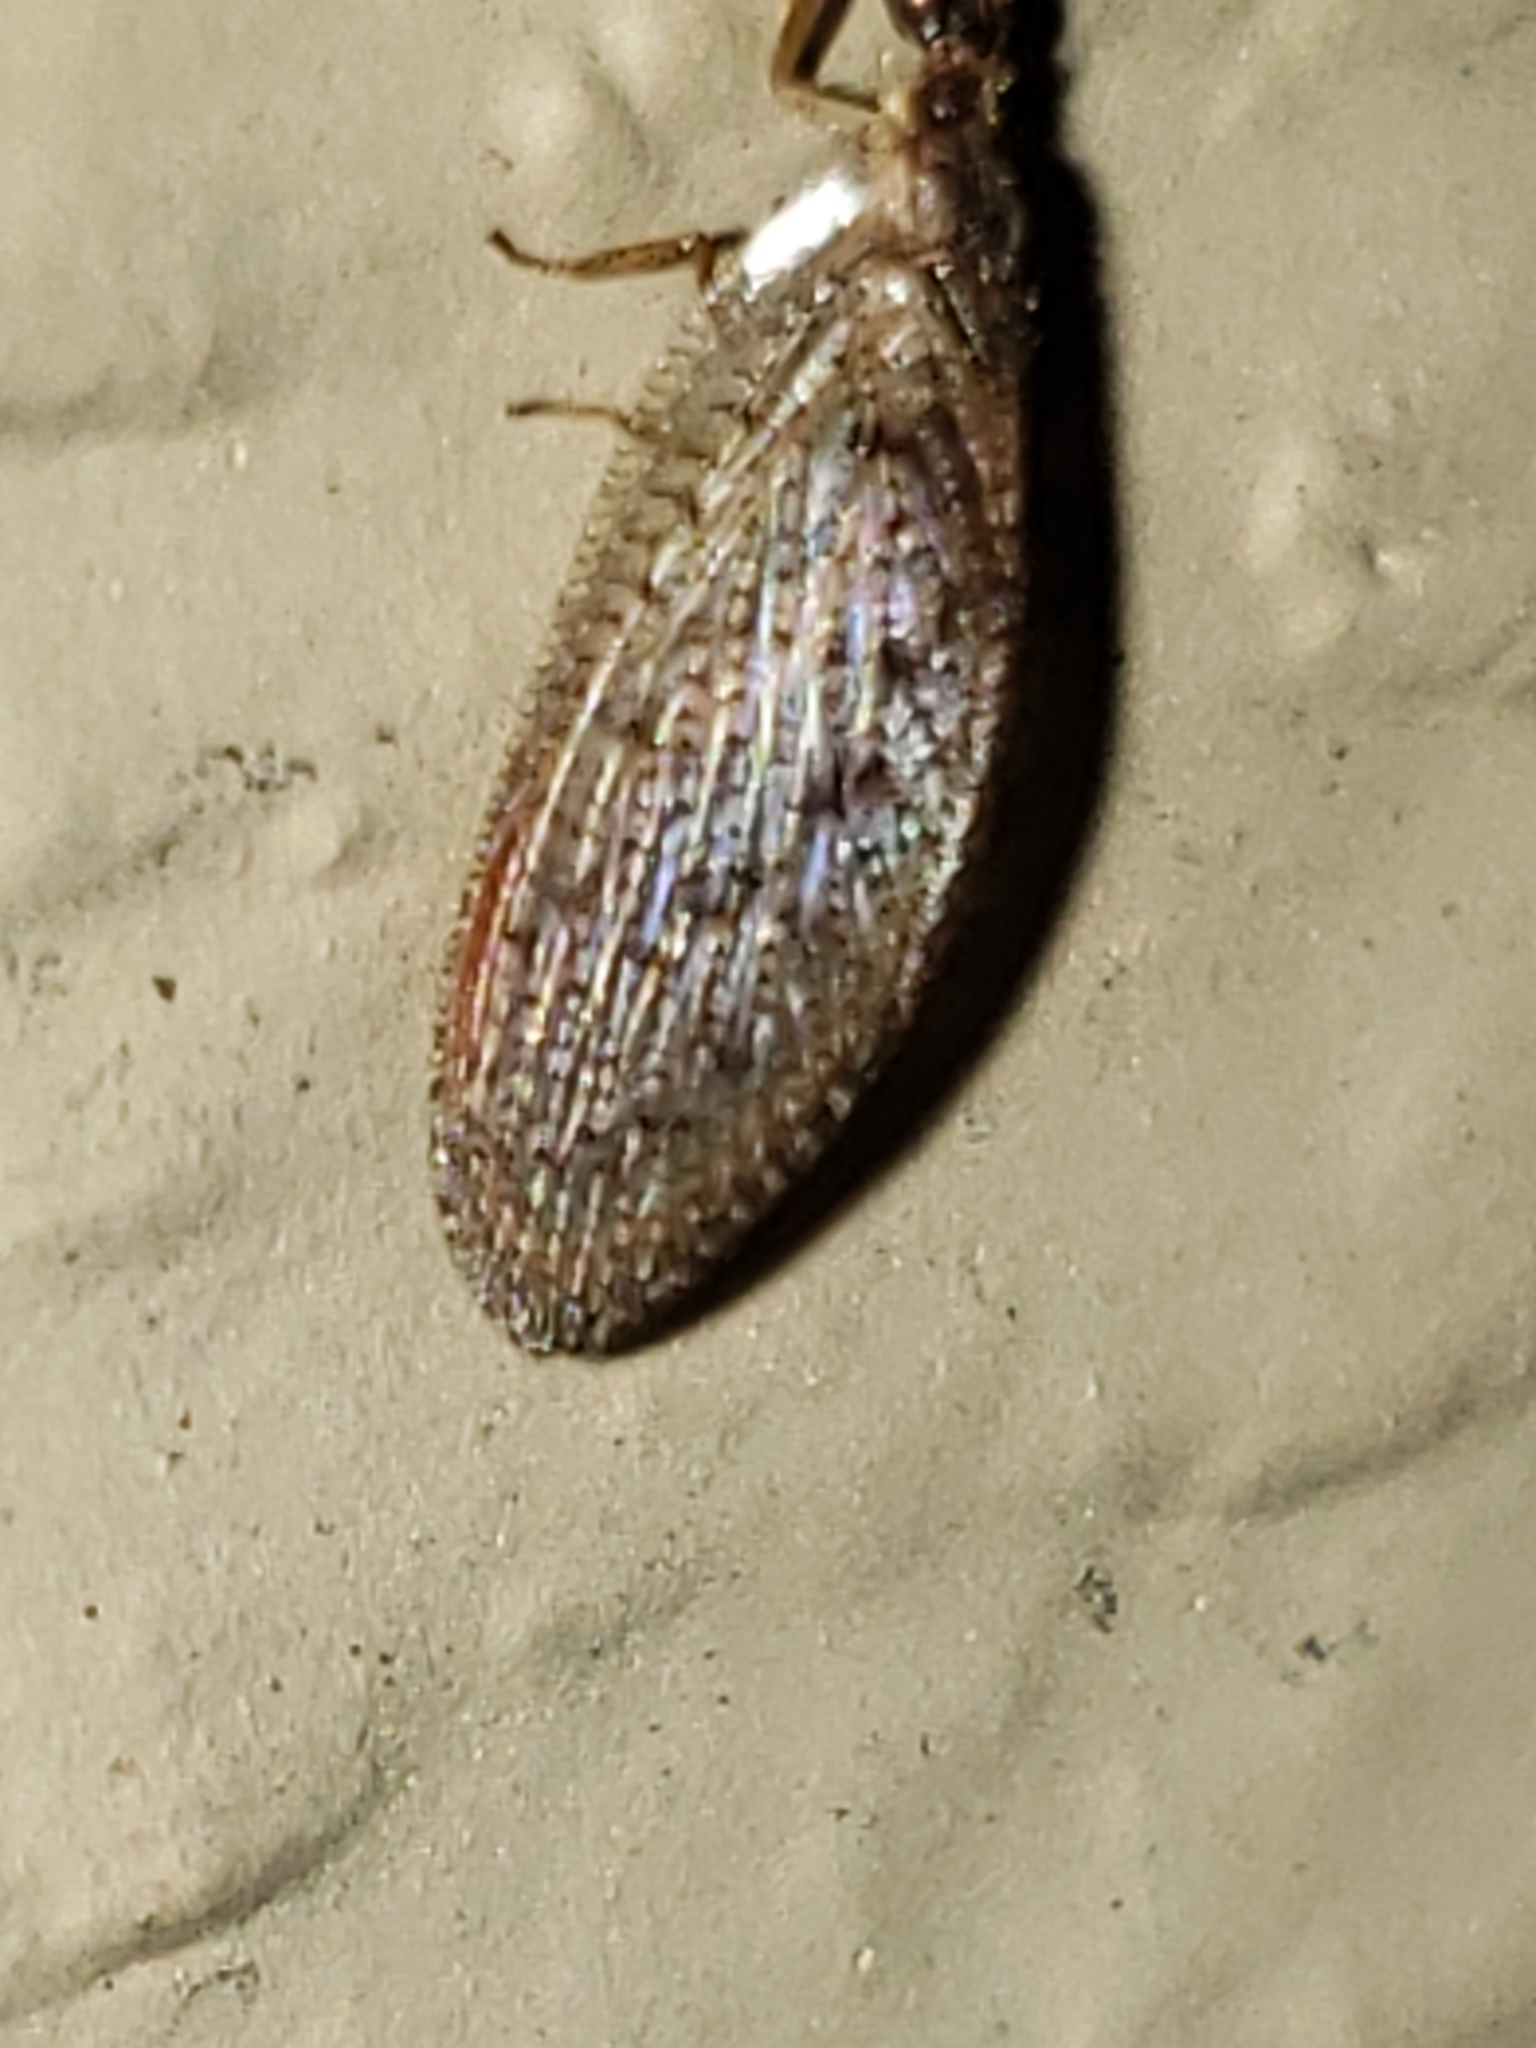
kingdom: Animalia
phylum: Arthropoda
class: Insecta
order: Neuroptera
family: Hemerobiidae
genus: Hemerobius
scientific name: Hemerobius stigma
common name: Brown pine lacewing
